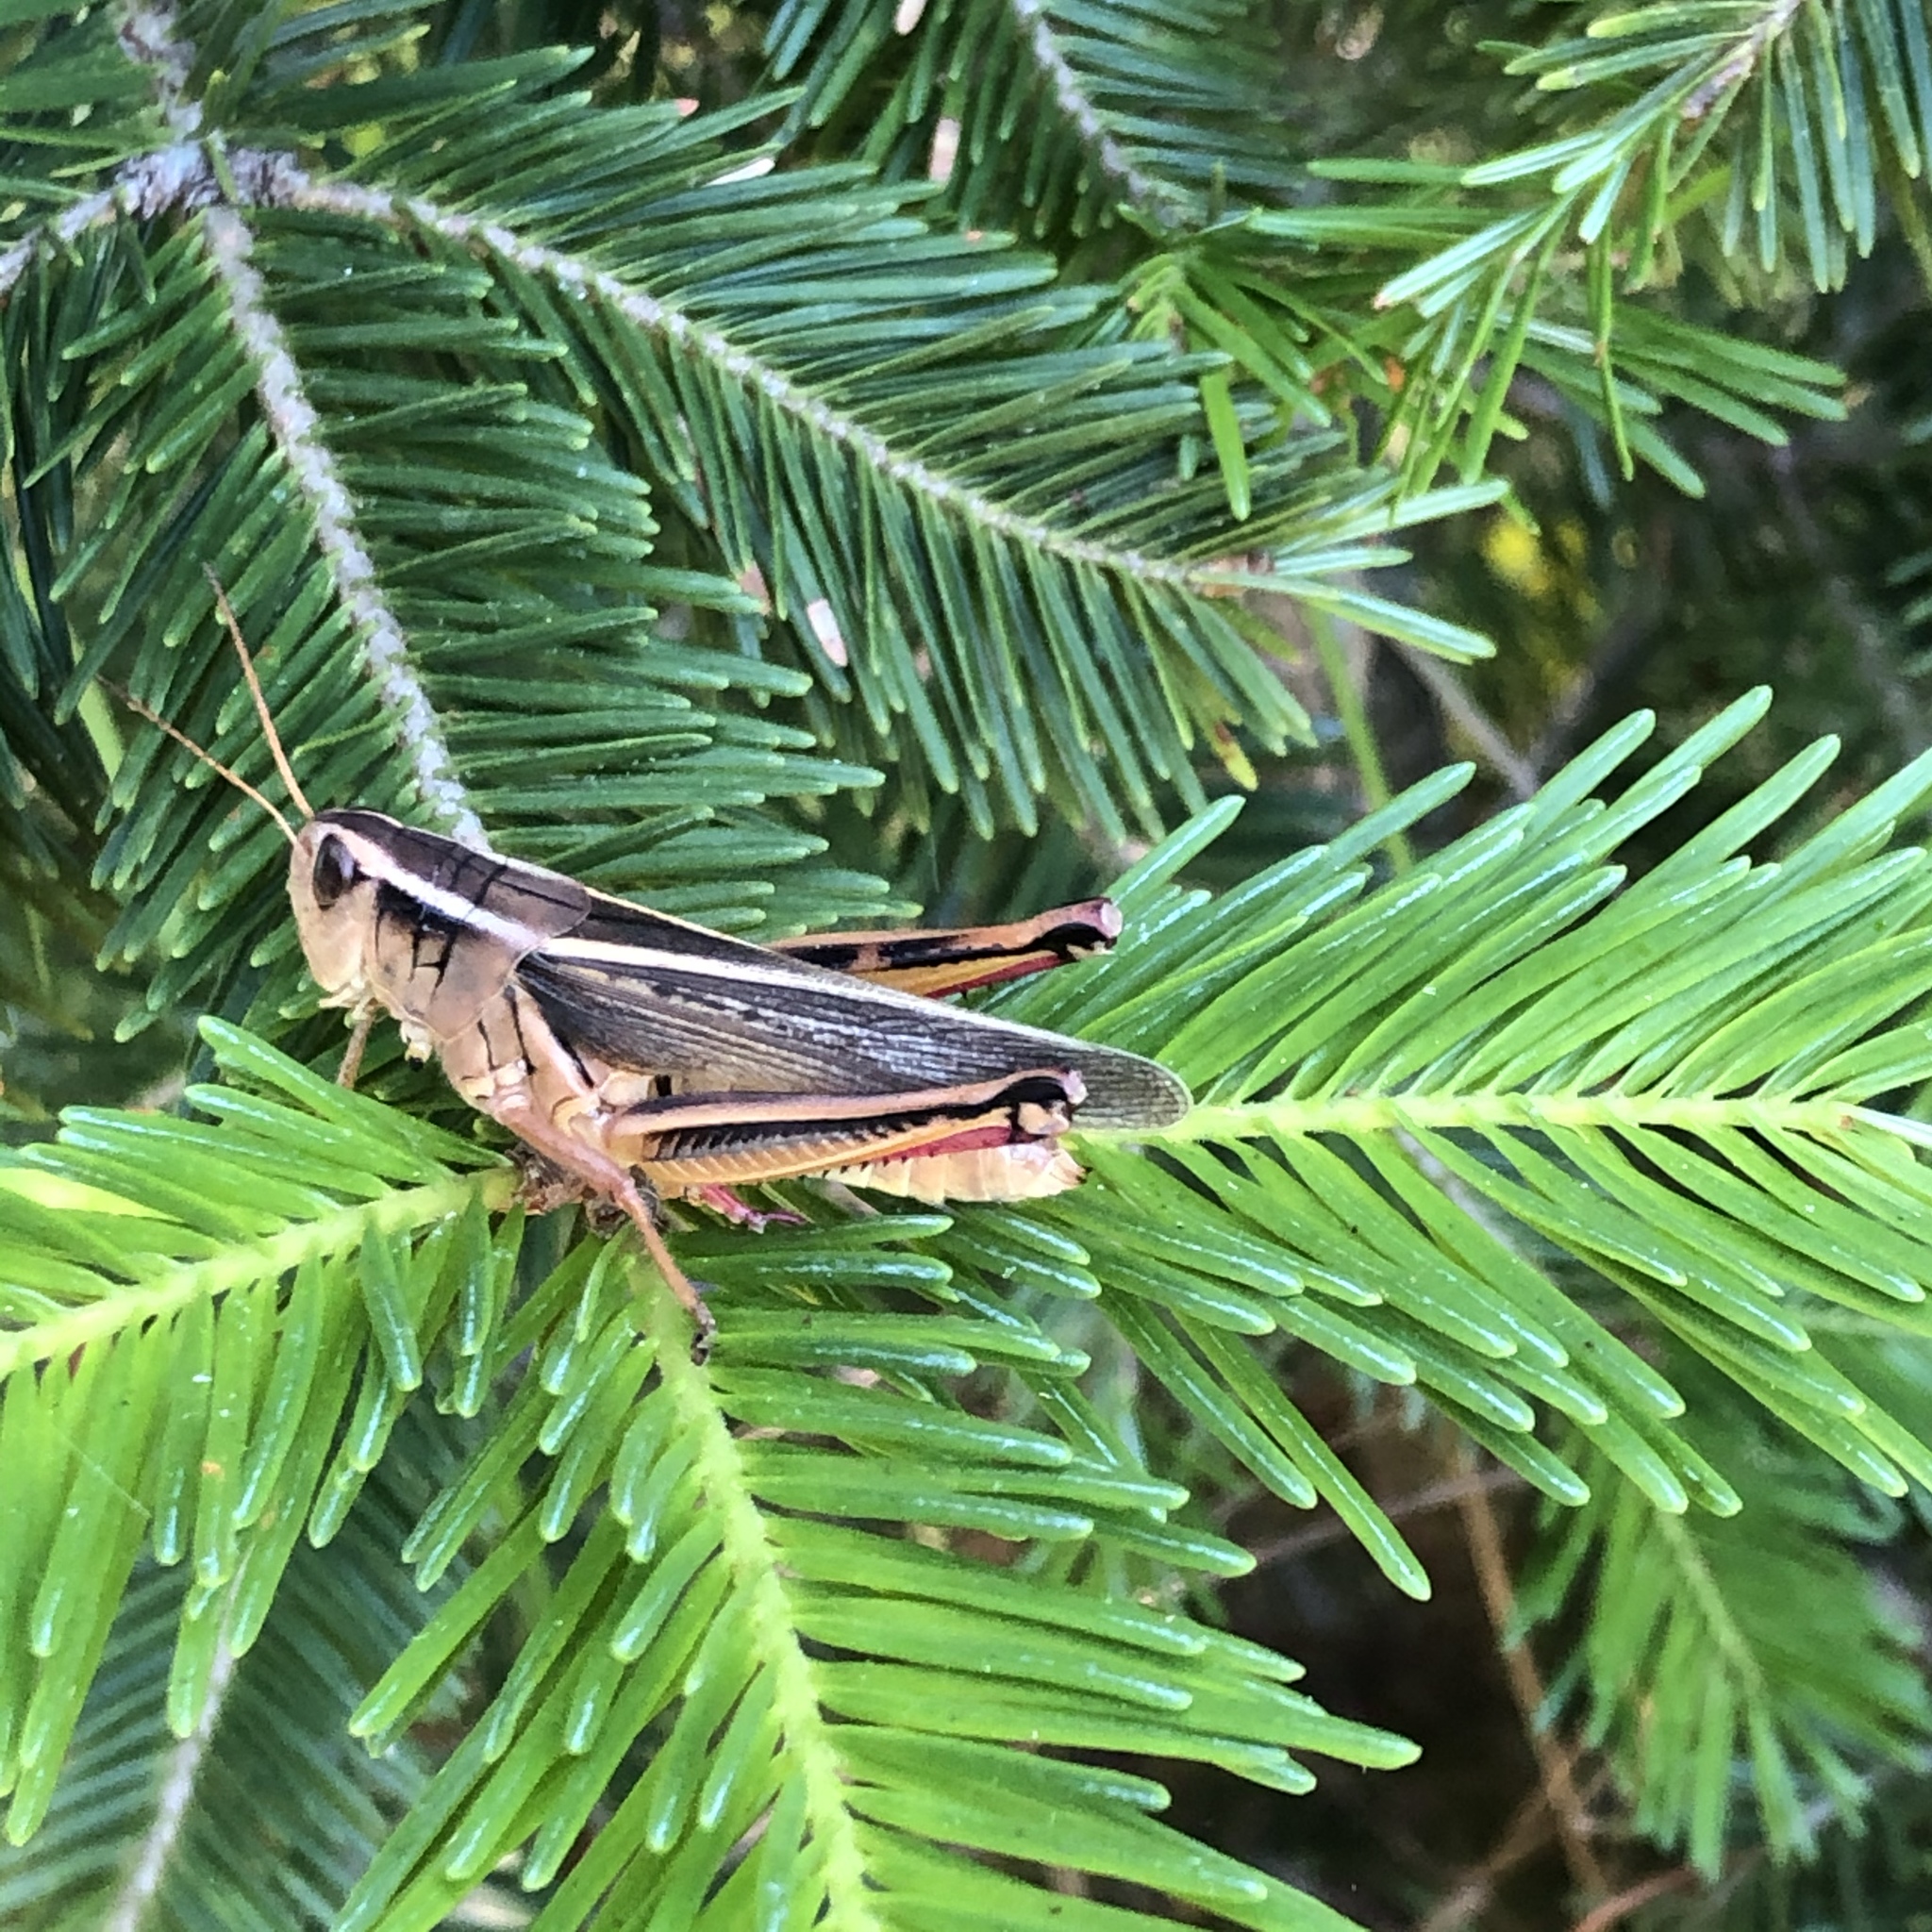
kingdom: Animalia
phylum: Arthropoda
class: Insecta
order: Orthoptera
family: Acrididae
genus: Melanoplus
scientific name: Melanoplus bivittatus
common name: Two-striped grasshopper
